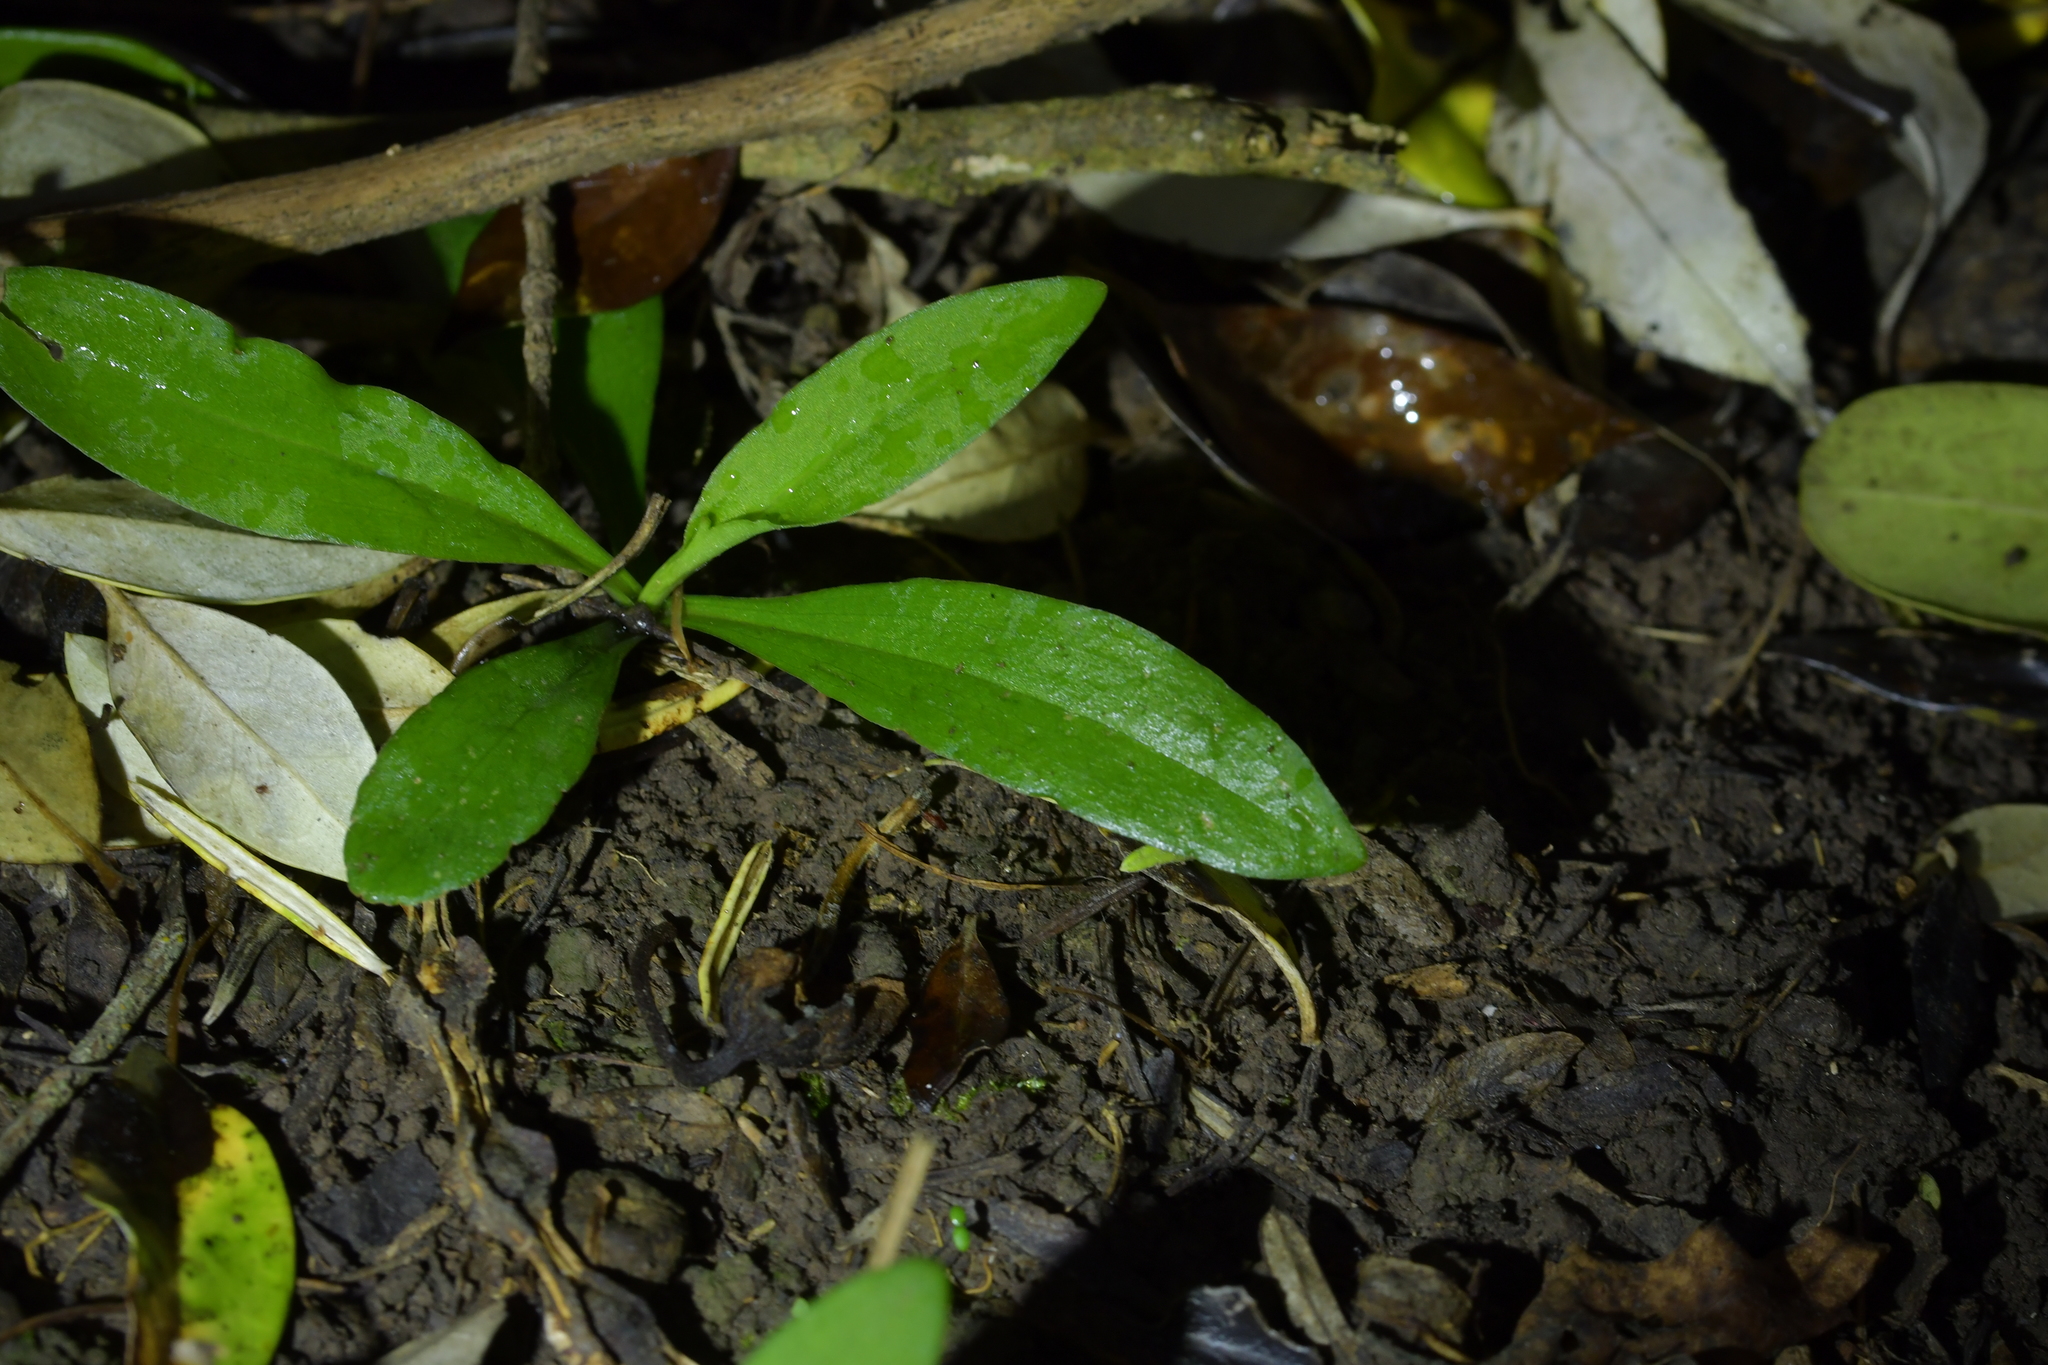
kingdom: Plantae
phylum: Tracheophyta
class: Liliopsida
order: Asparagales
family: Orchidaceae
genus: Pterostylis
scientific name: Pterostylis areolata
